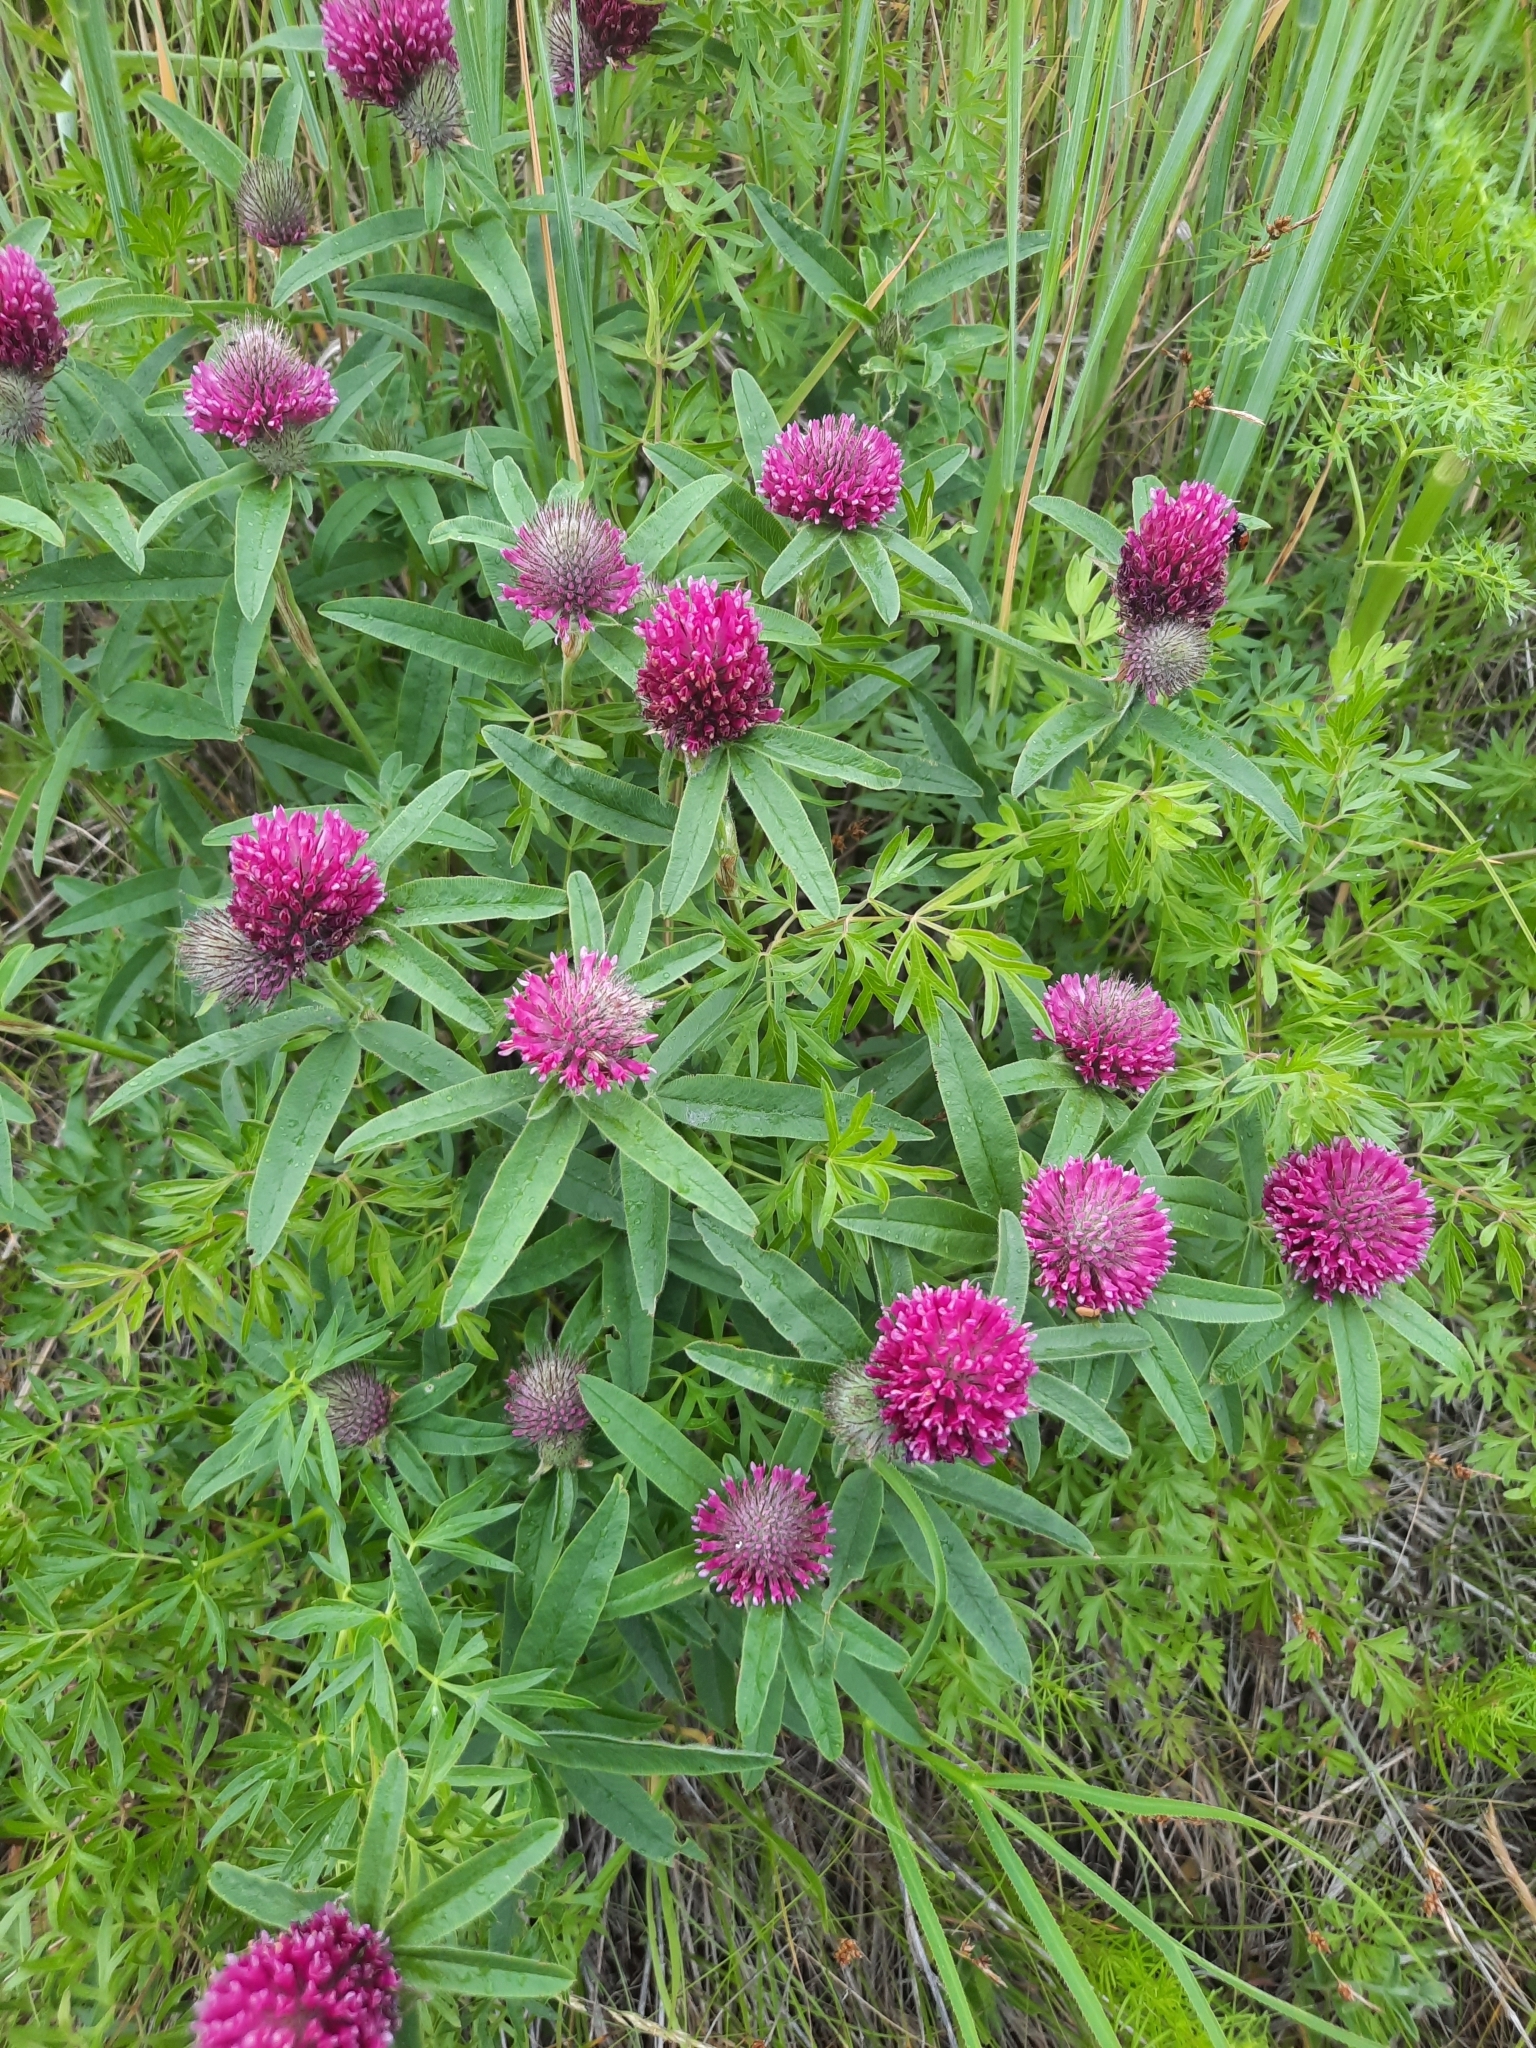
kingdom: Plantae
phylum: Tracheophyta
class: Magnoliopsida
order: Fabales
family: Fabaceae
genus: Trifolium
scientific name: Trifolium alpestre
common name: Owl-head clover
